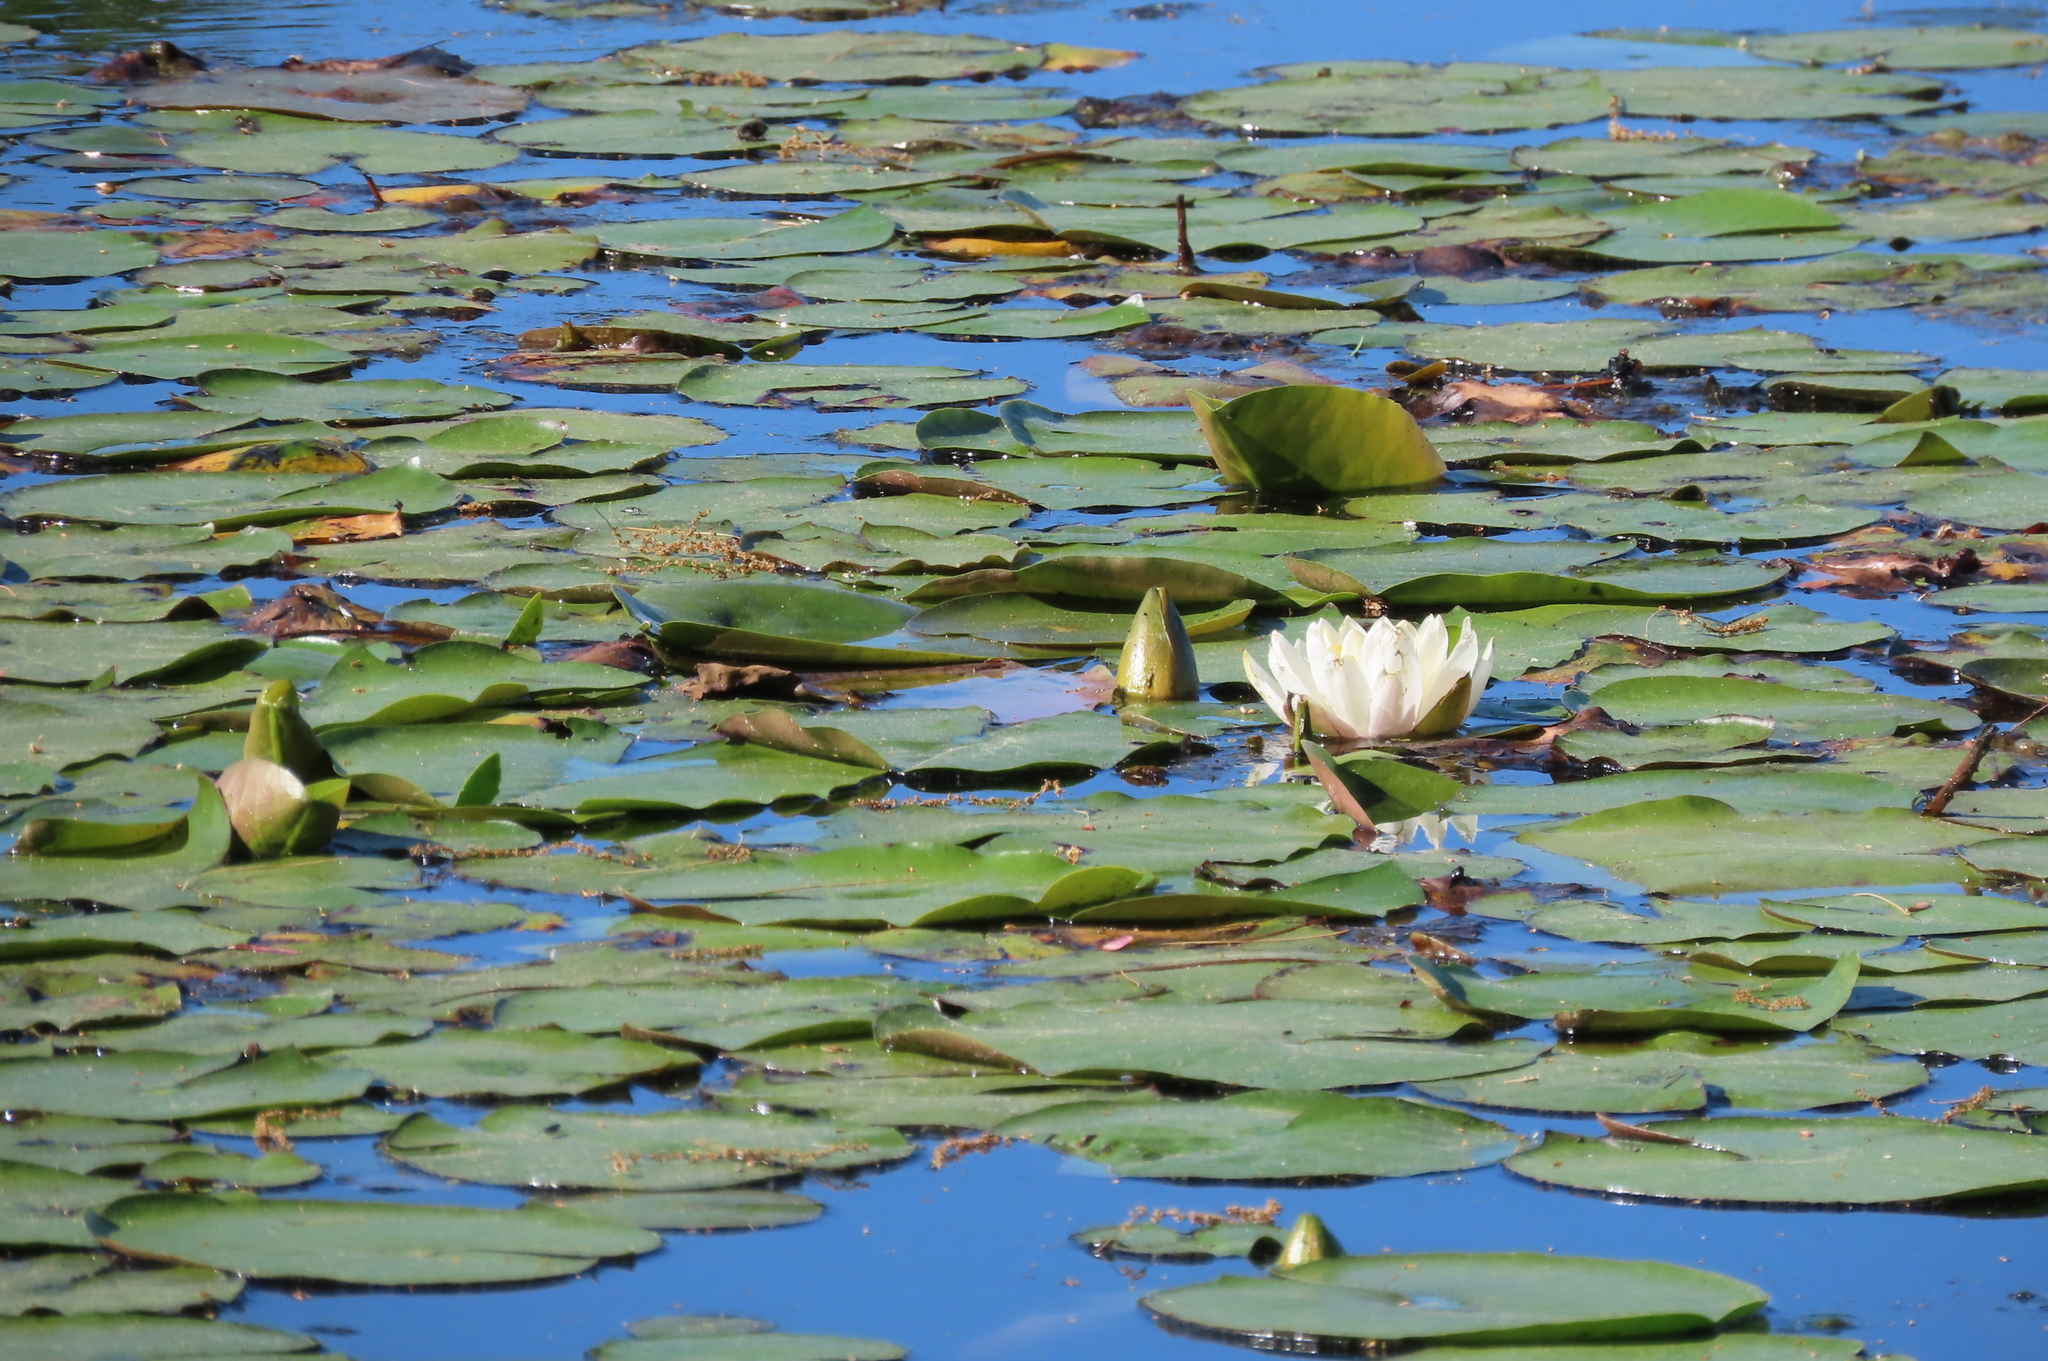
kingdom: Plantae
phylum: Tracheophyta
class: Magnoliopsida
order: Nymphaeales
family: Nymphaeaceae
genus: Nymphaea
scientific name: Nymphaea odorata
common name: Fragrant water-lily
